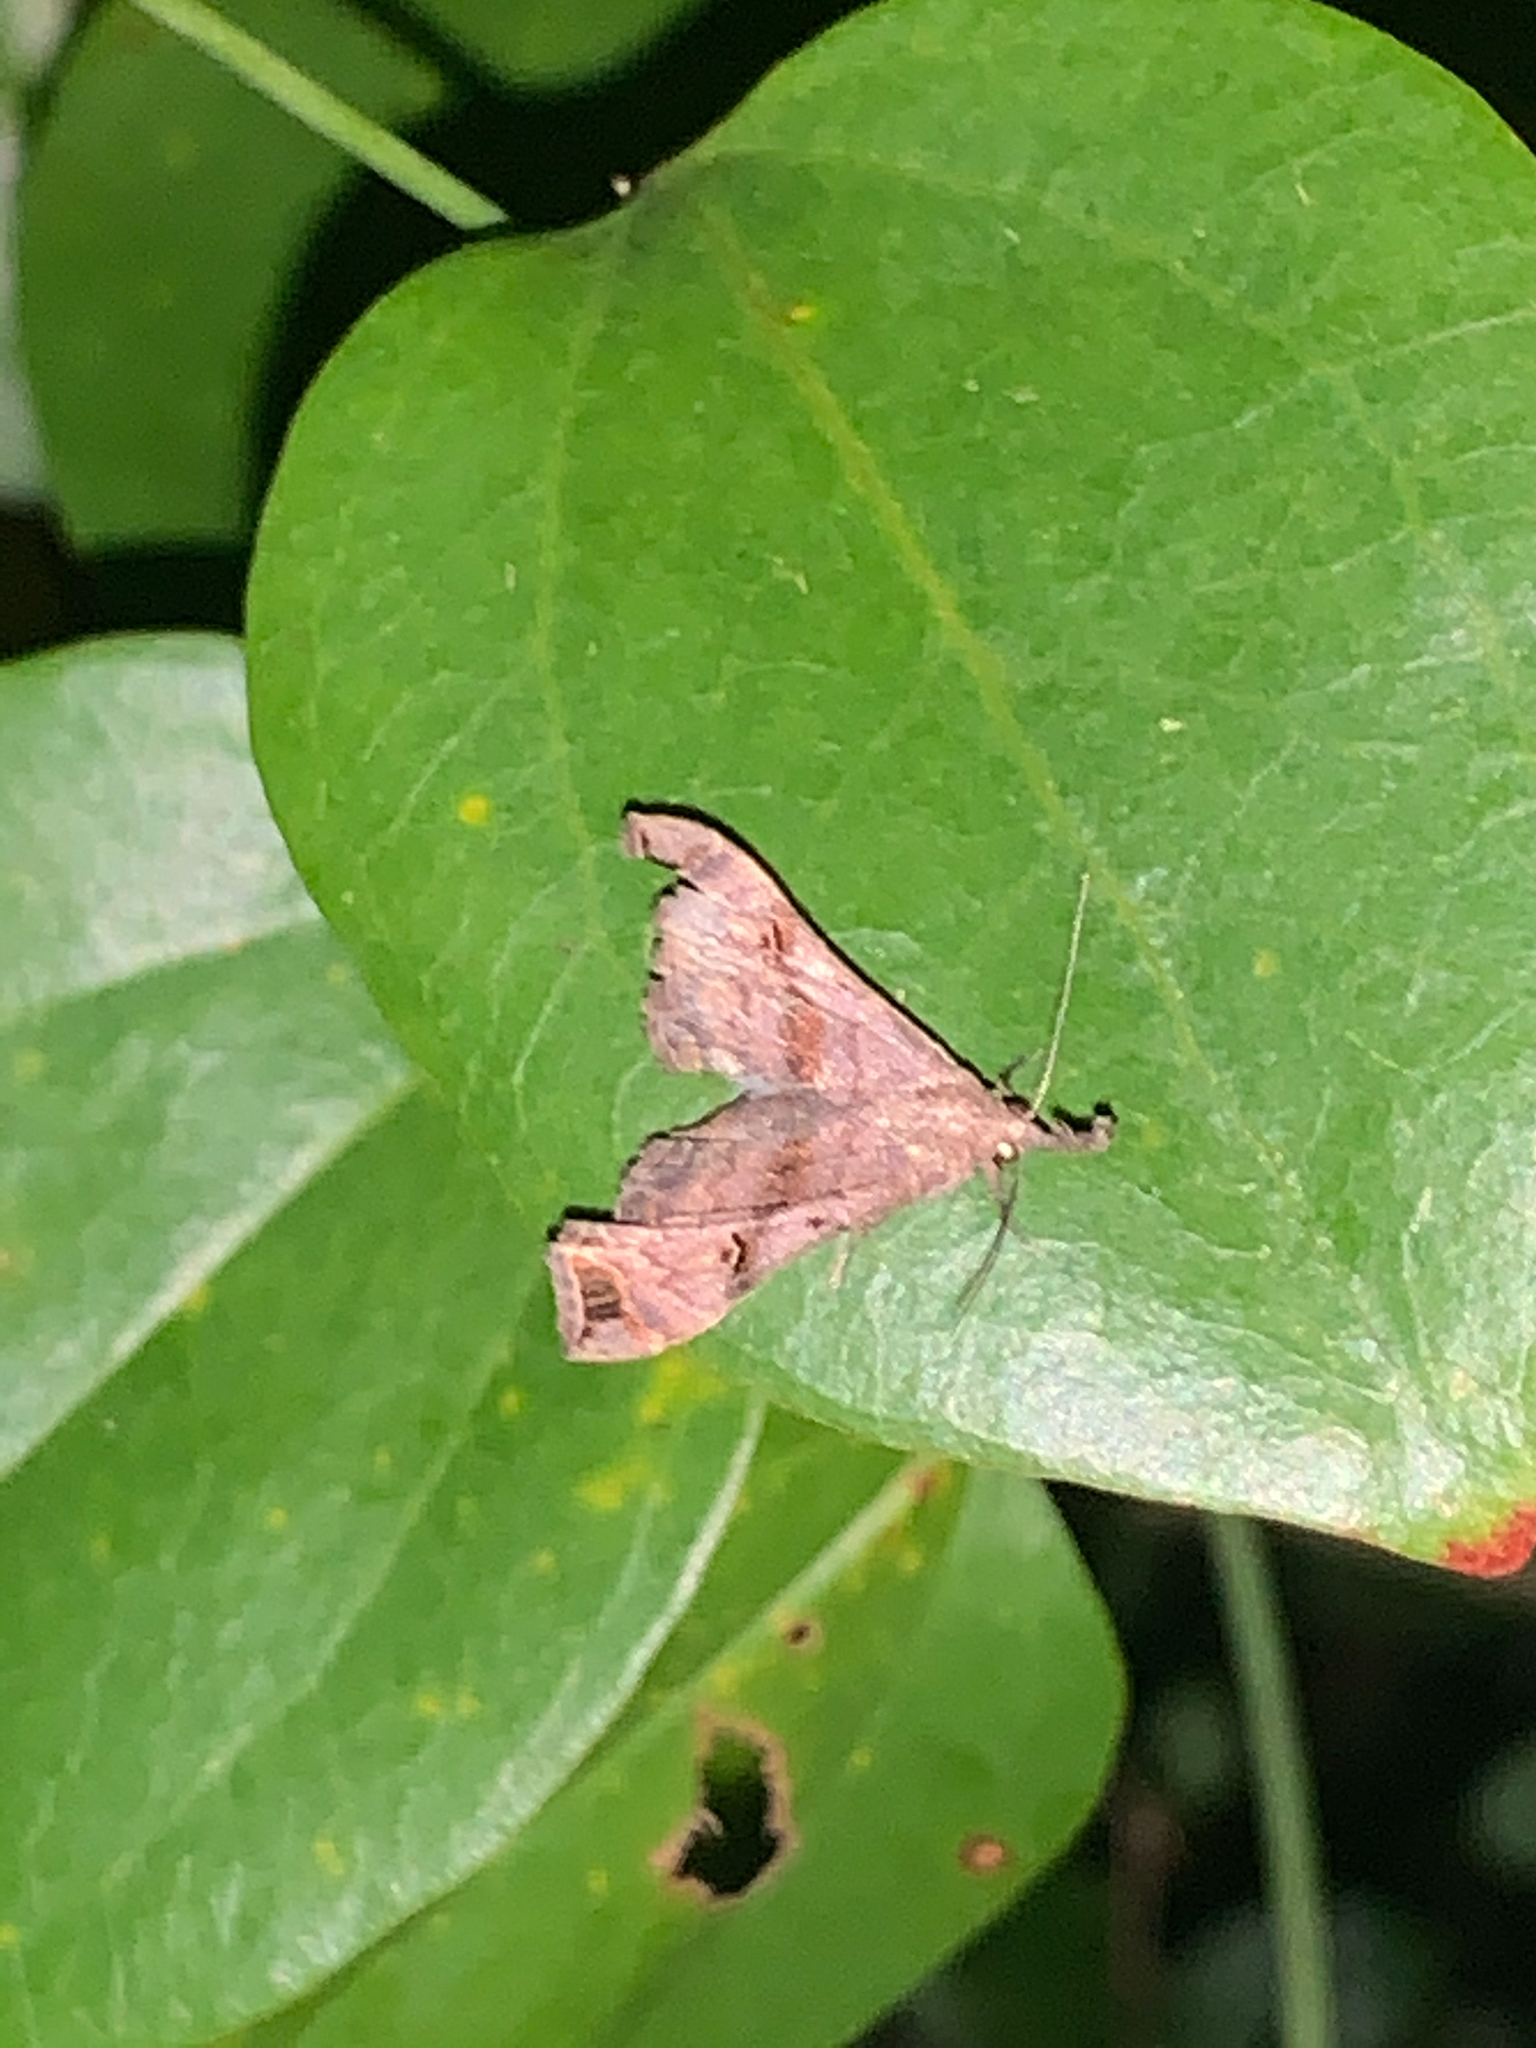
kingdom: Animalia
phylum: Arthropoda
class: Insecta
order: Lepidoptera
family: Erebidae
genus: Palthis
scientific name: Palthis asopialis
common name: Faint-spotted palthis moth
